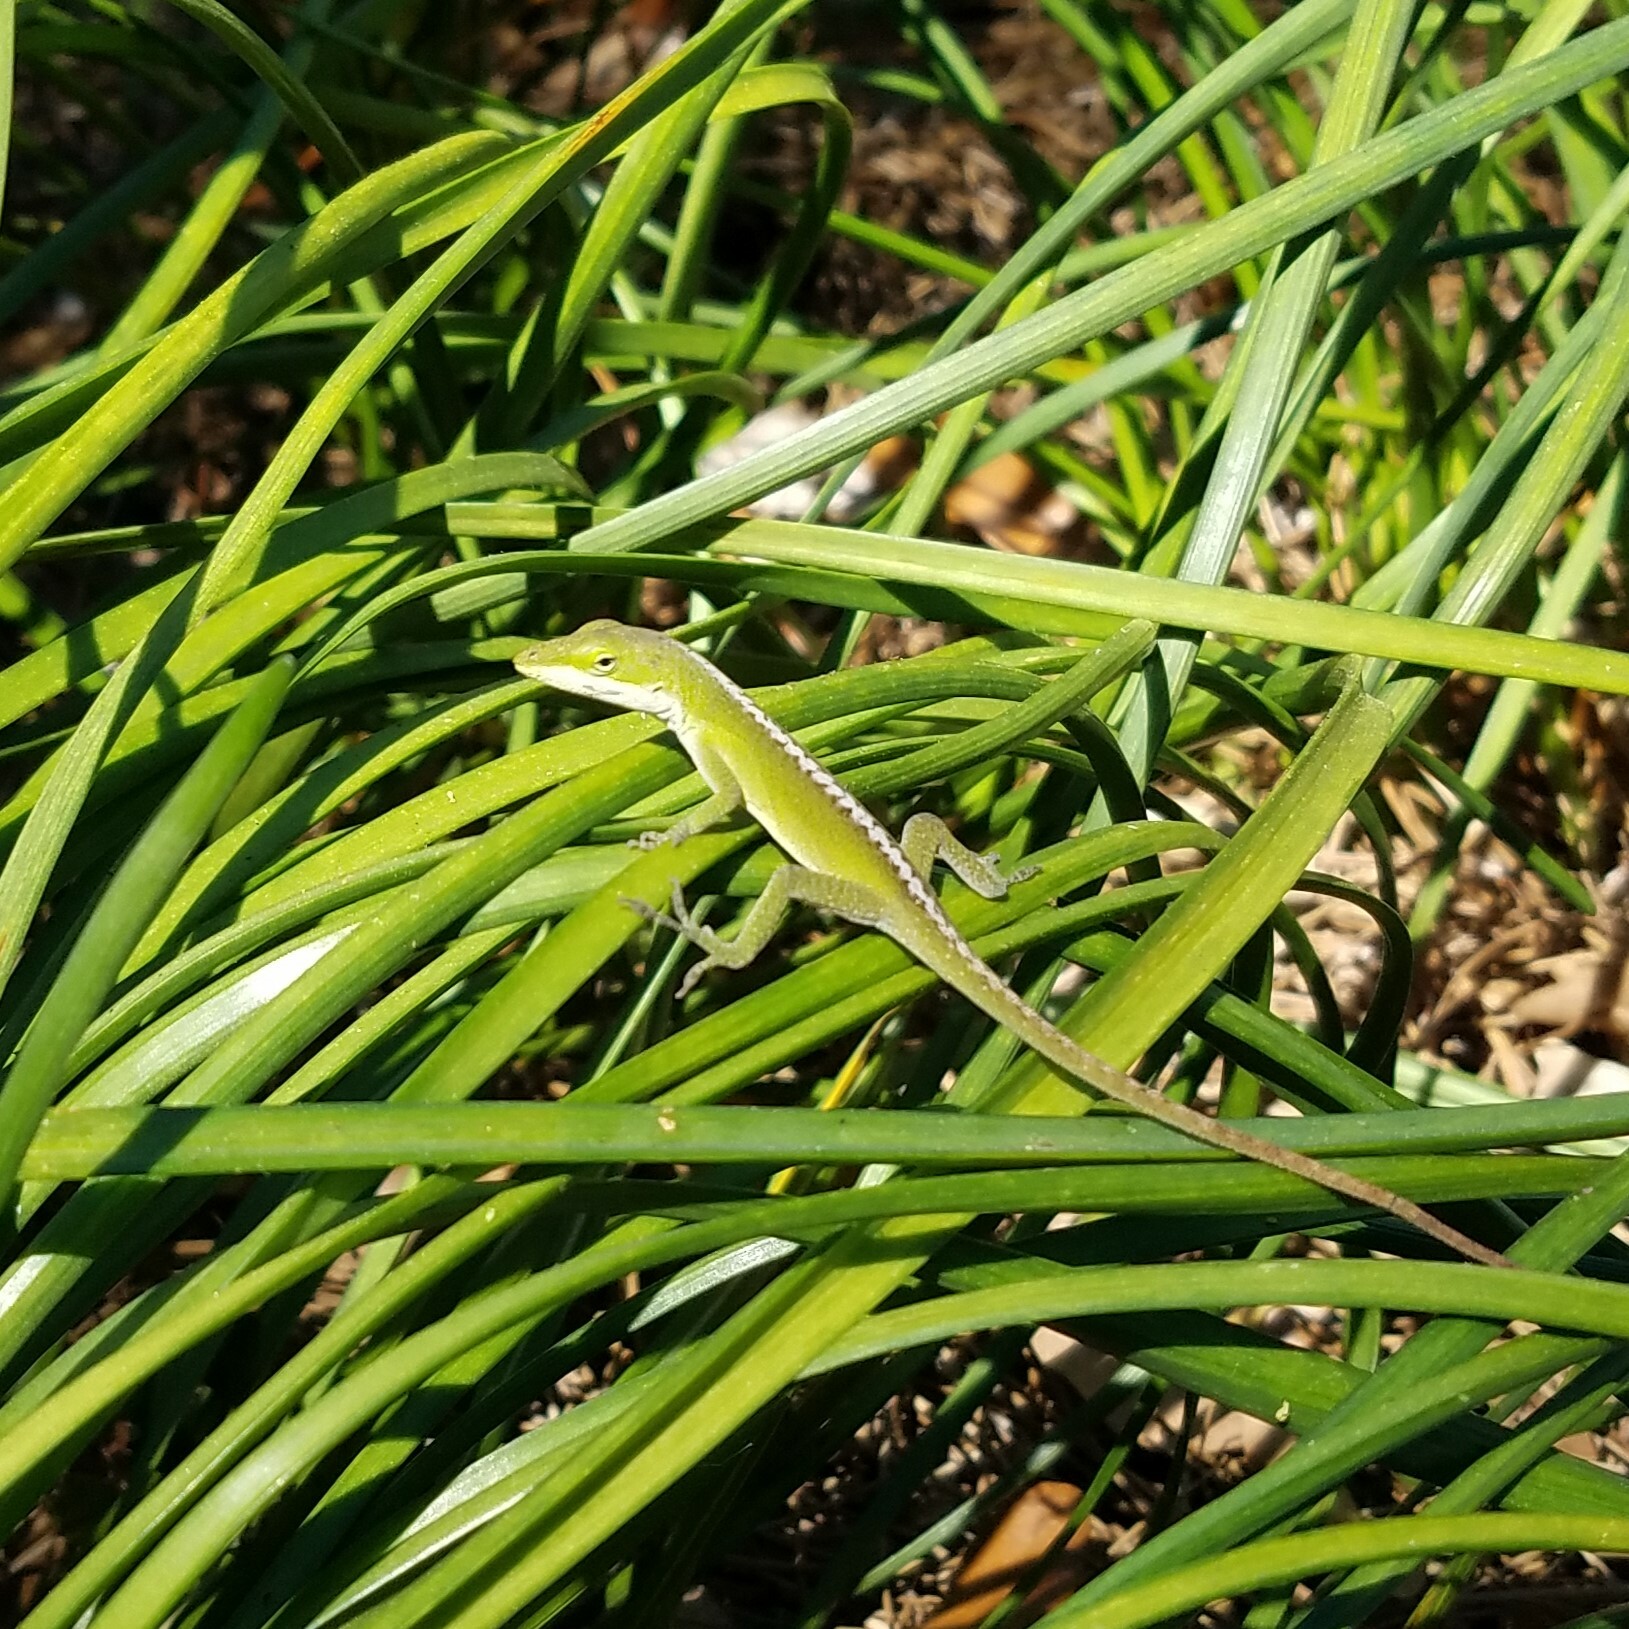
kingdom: Animalia
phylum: Chordata
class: Squamata
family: Dactyloidae
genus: Anolis
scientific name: Anolis carolinensis
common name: Green anole
